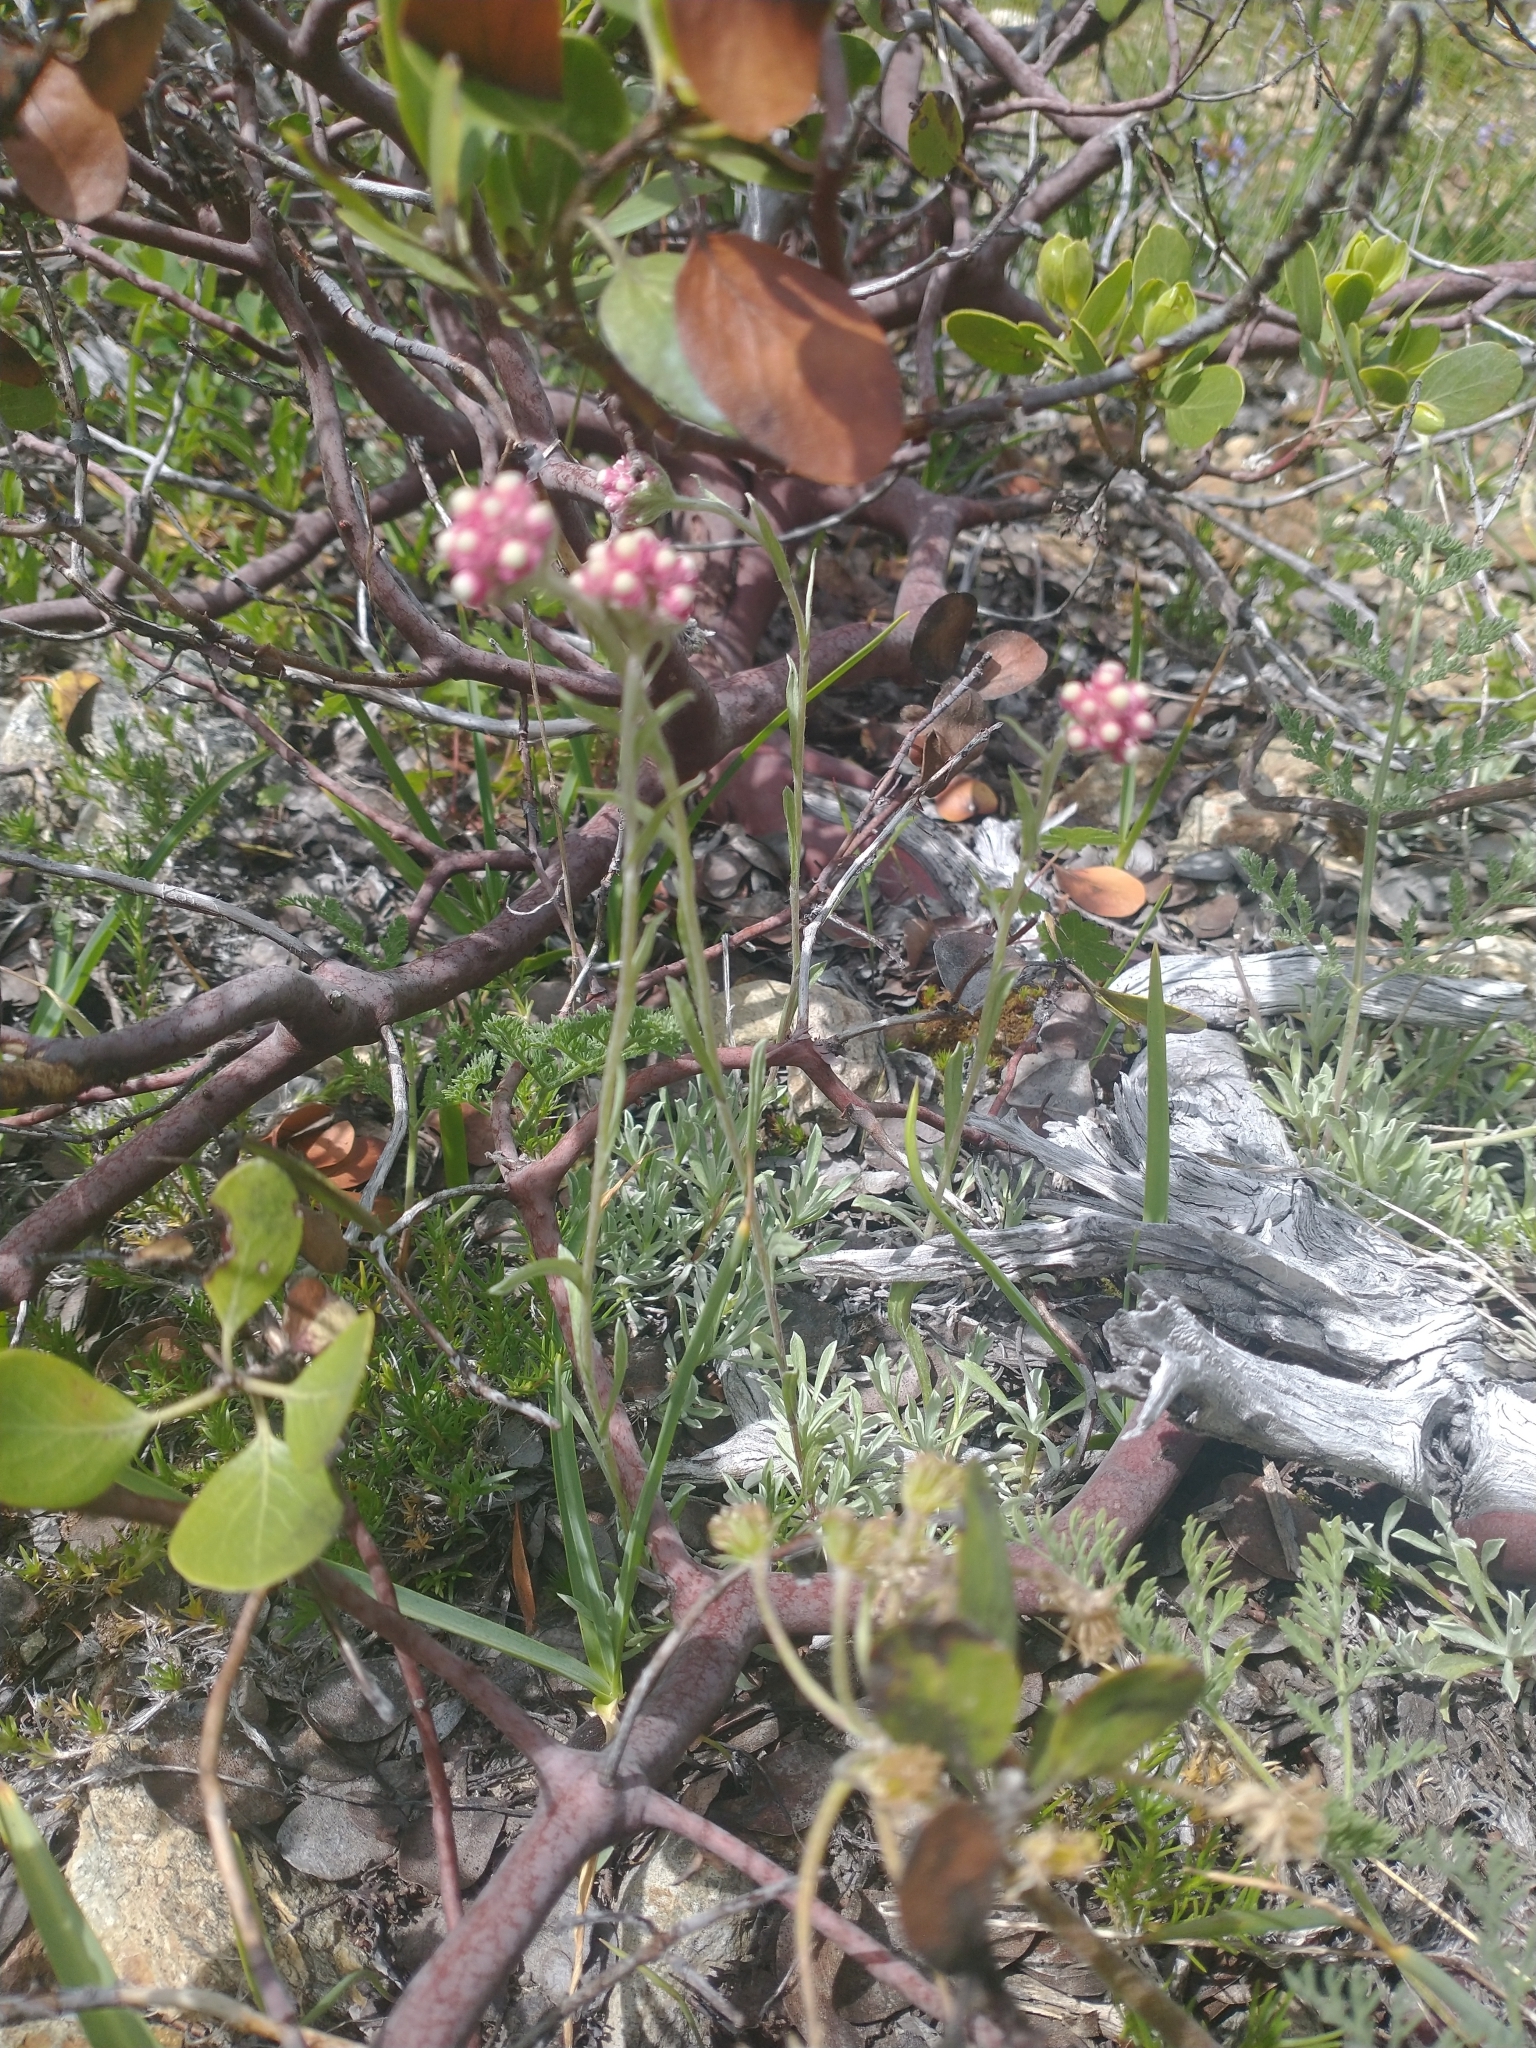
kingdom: Plantae
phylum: Tracheophyta
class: Magnoliopsida
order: Asterales
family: Asteraceae
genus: Antennaria
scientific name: Antennaria rosea
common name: Rosy pussytoes
